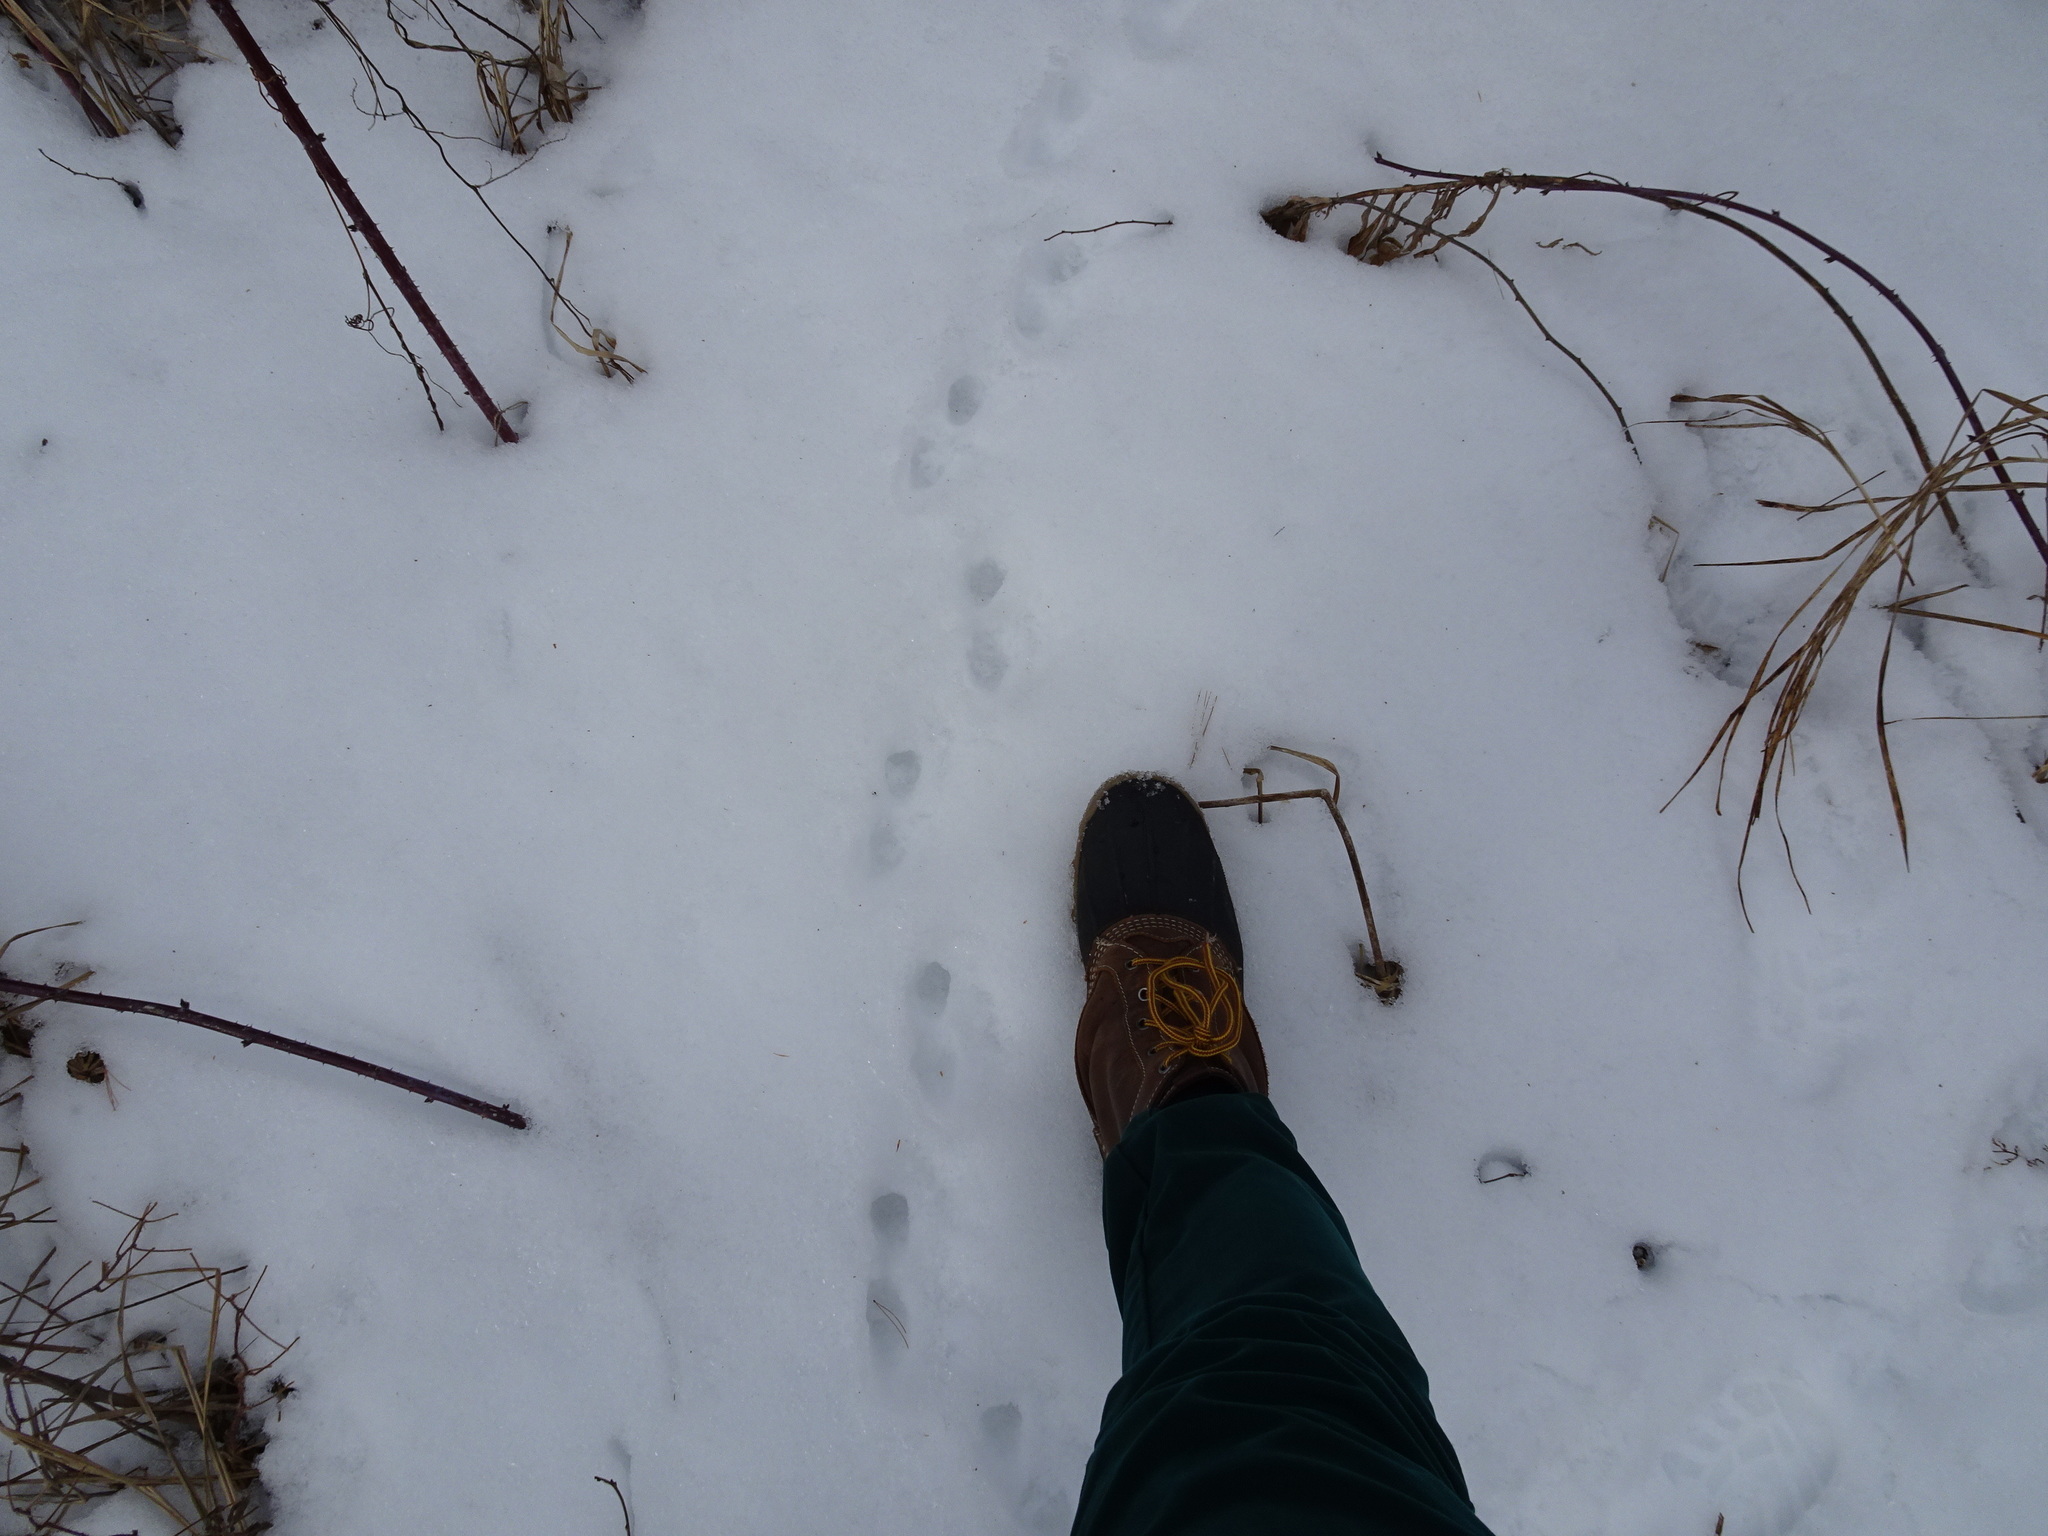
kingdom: Animalia
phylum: Chordata
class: Mammalia
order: Carnivora
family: Mephitidae
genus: Mephitis
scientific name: Mephitis mephitis
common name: Striped skunk
